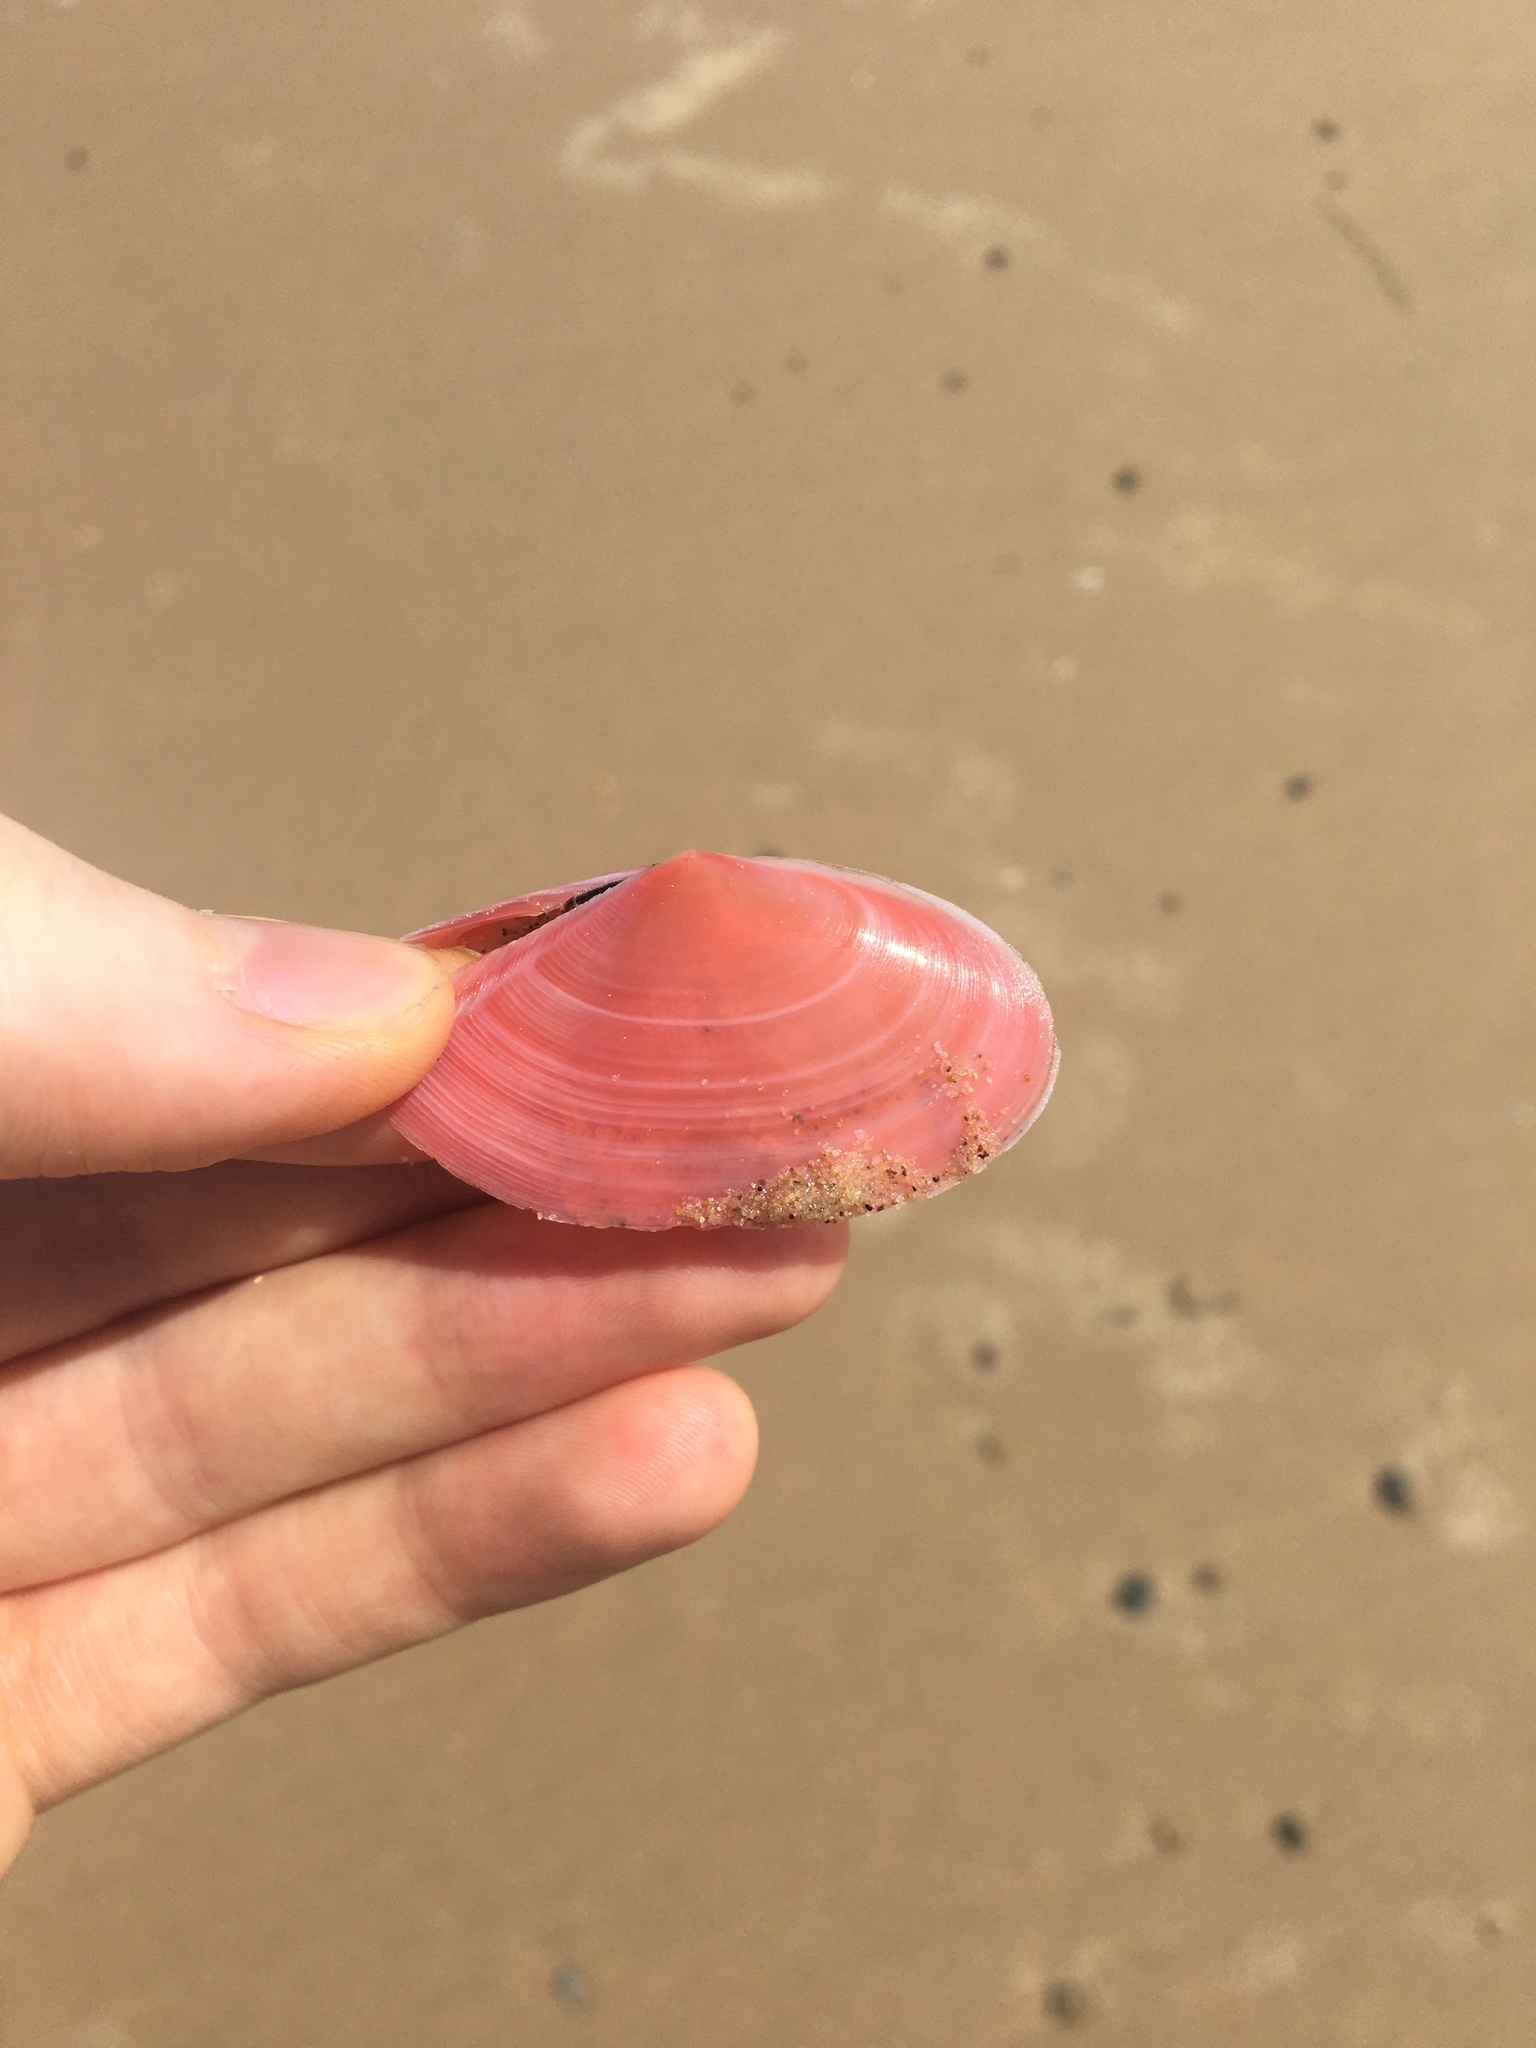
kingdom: Animalia
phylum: Mollusca
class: Bivalvia
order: Cardiida
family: Tellinidae
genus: Tellinota
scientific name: Tellinota albinella
